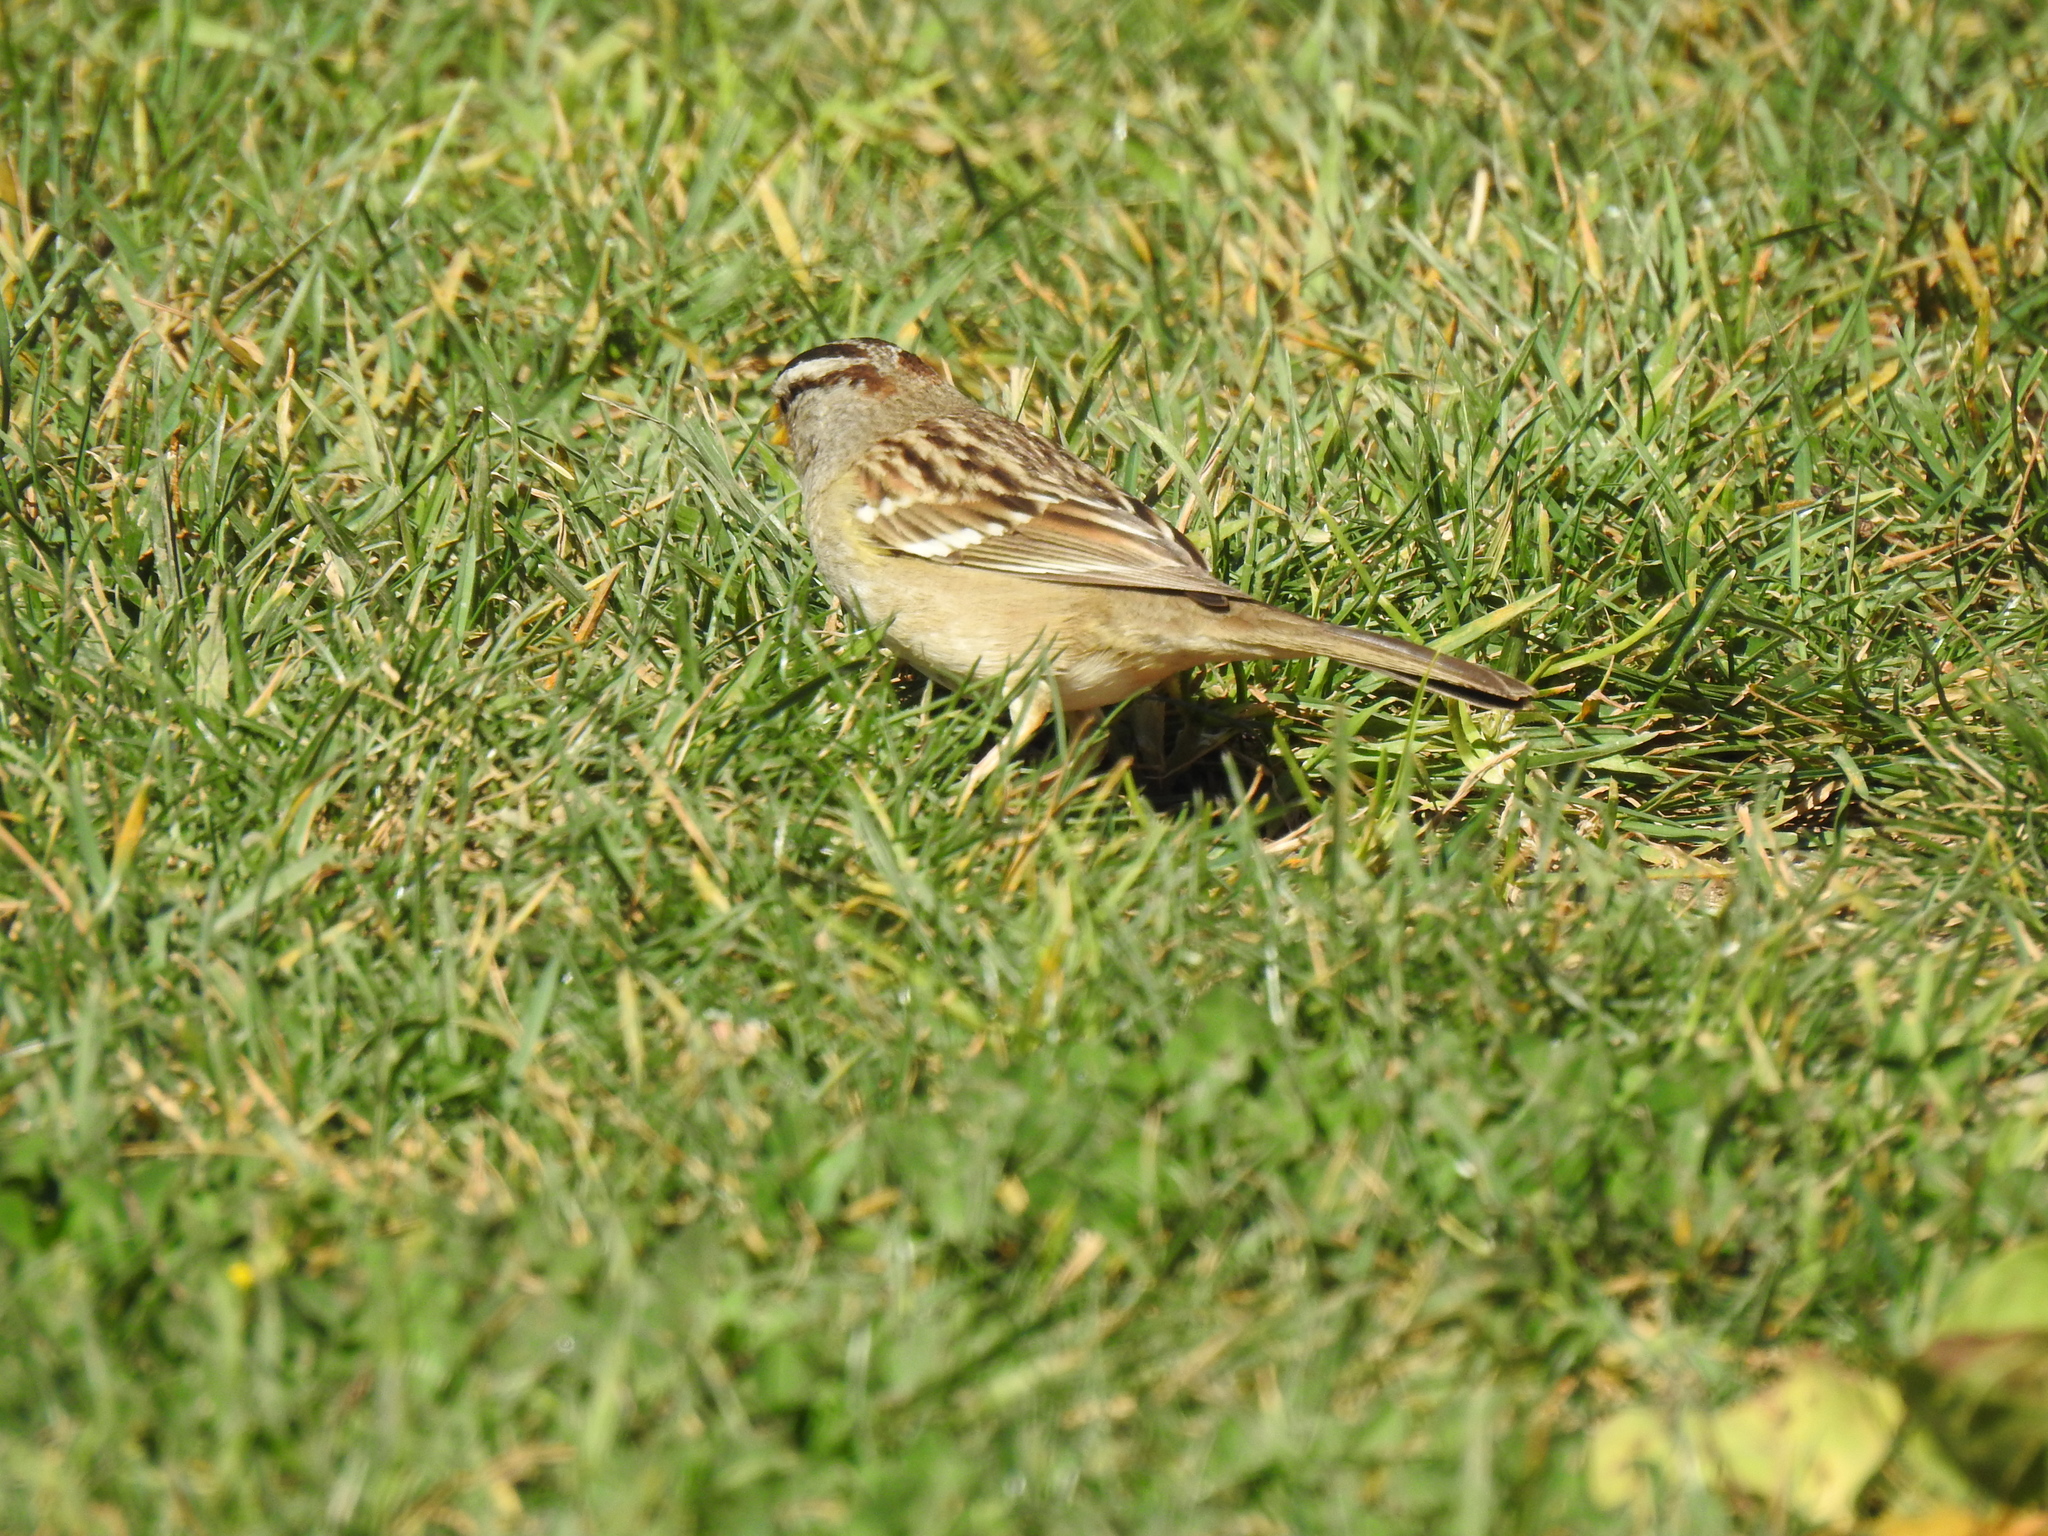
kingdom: Animalia
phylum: Chordata
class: Aves
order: Passeriformes
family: Passerellidae
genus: Zonotrichia
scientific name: Zonotrichia leucophrys
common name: White-crowned sparrow
